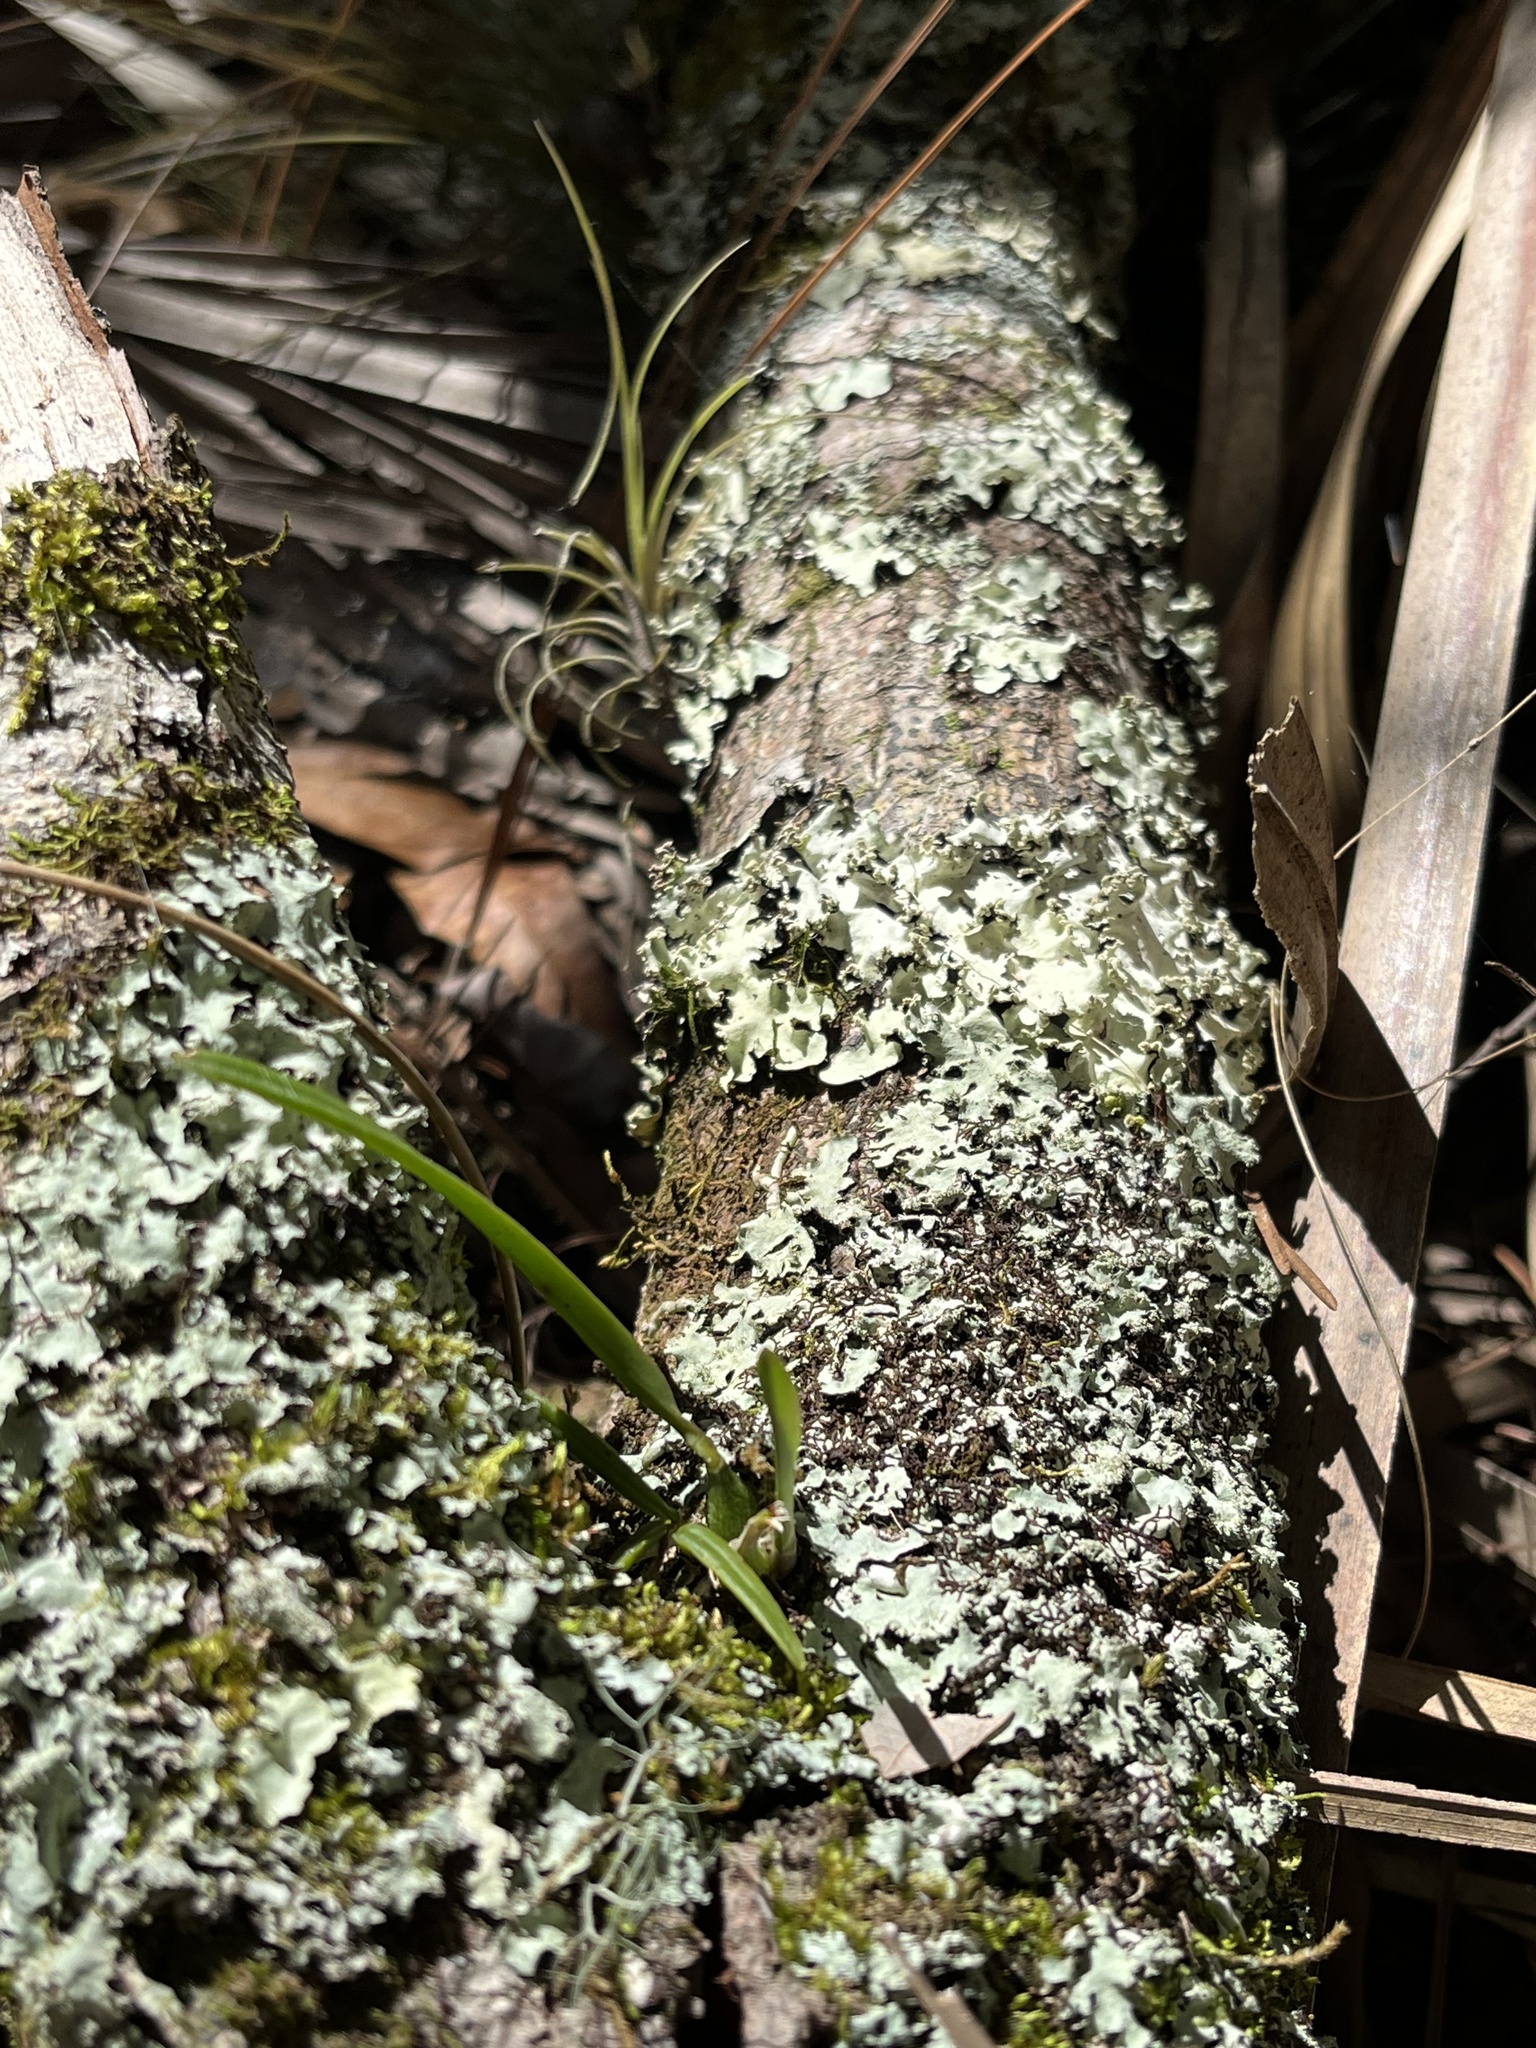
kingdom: Plantae
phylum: Tracheophyta
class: Liliopsida
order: Asparagales
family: Orchidaceae
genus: Encyclia
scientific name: Encyclia tampensis
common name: Florida butterfly orchid
